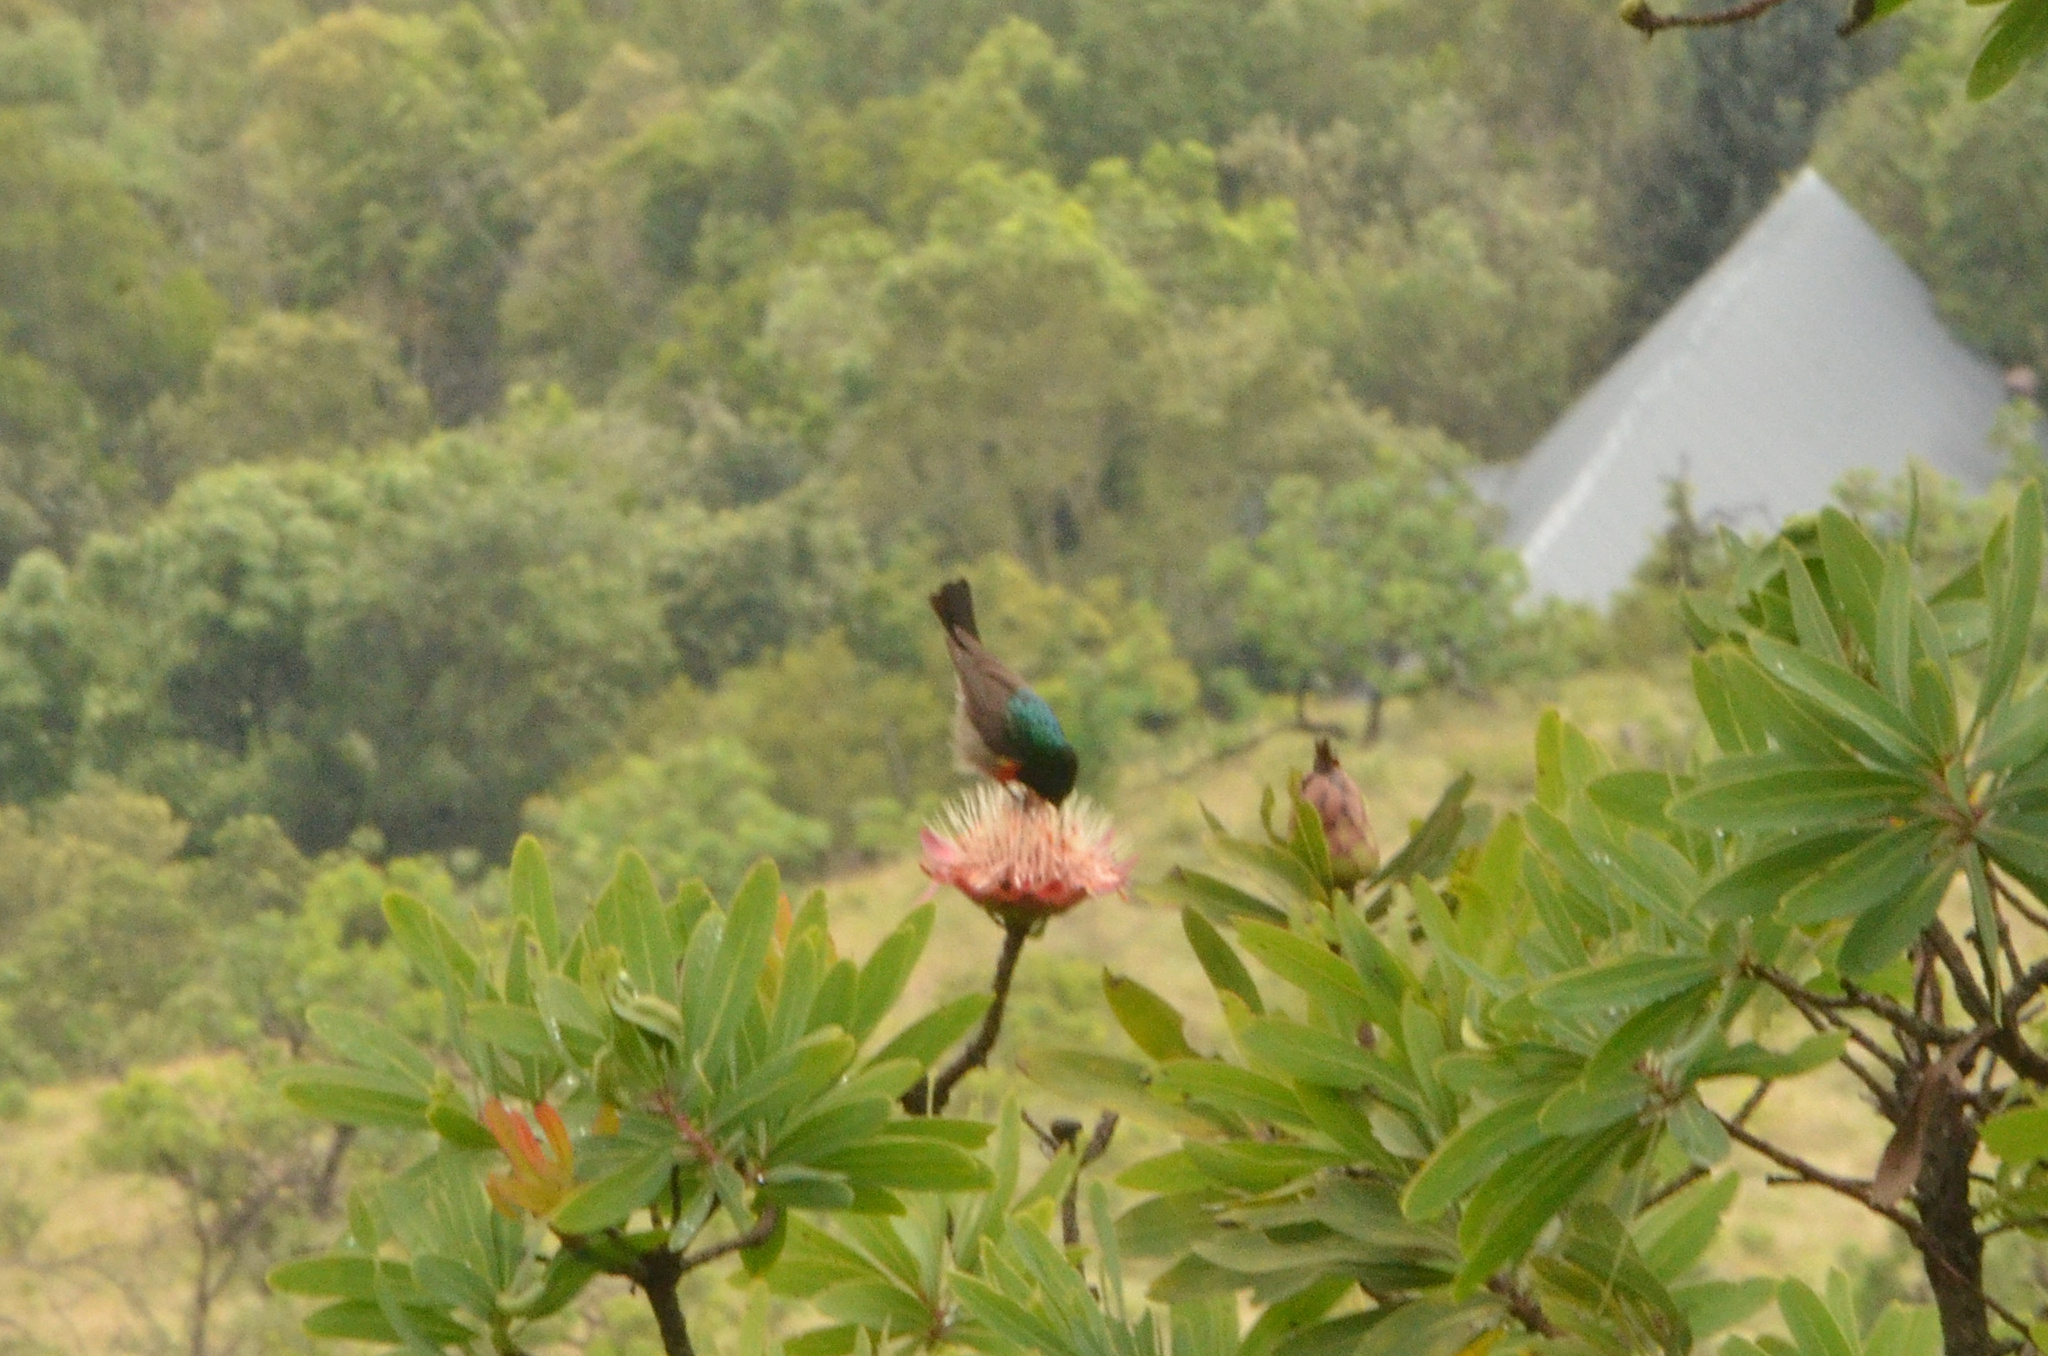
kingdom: Animalia
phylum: Chordata
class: Aves
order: Passeriformes
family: Nectariniidae
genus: Cinnyris
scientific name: Cinnyris afer
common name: Greater double-collared sunbird
